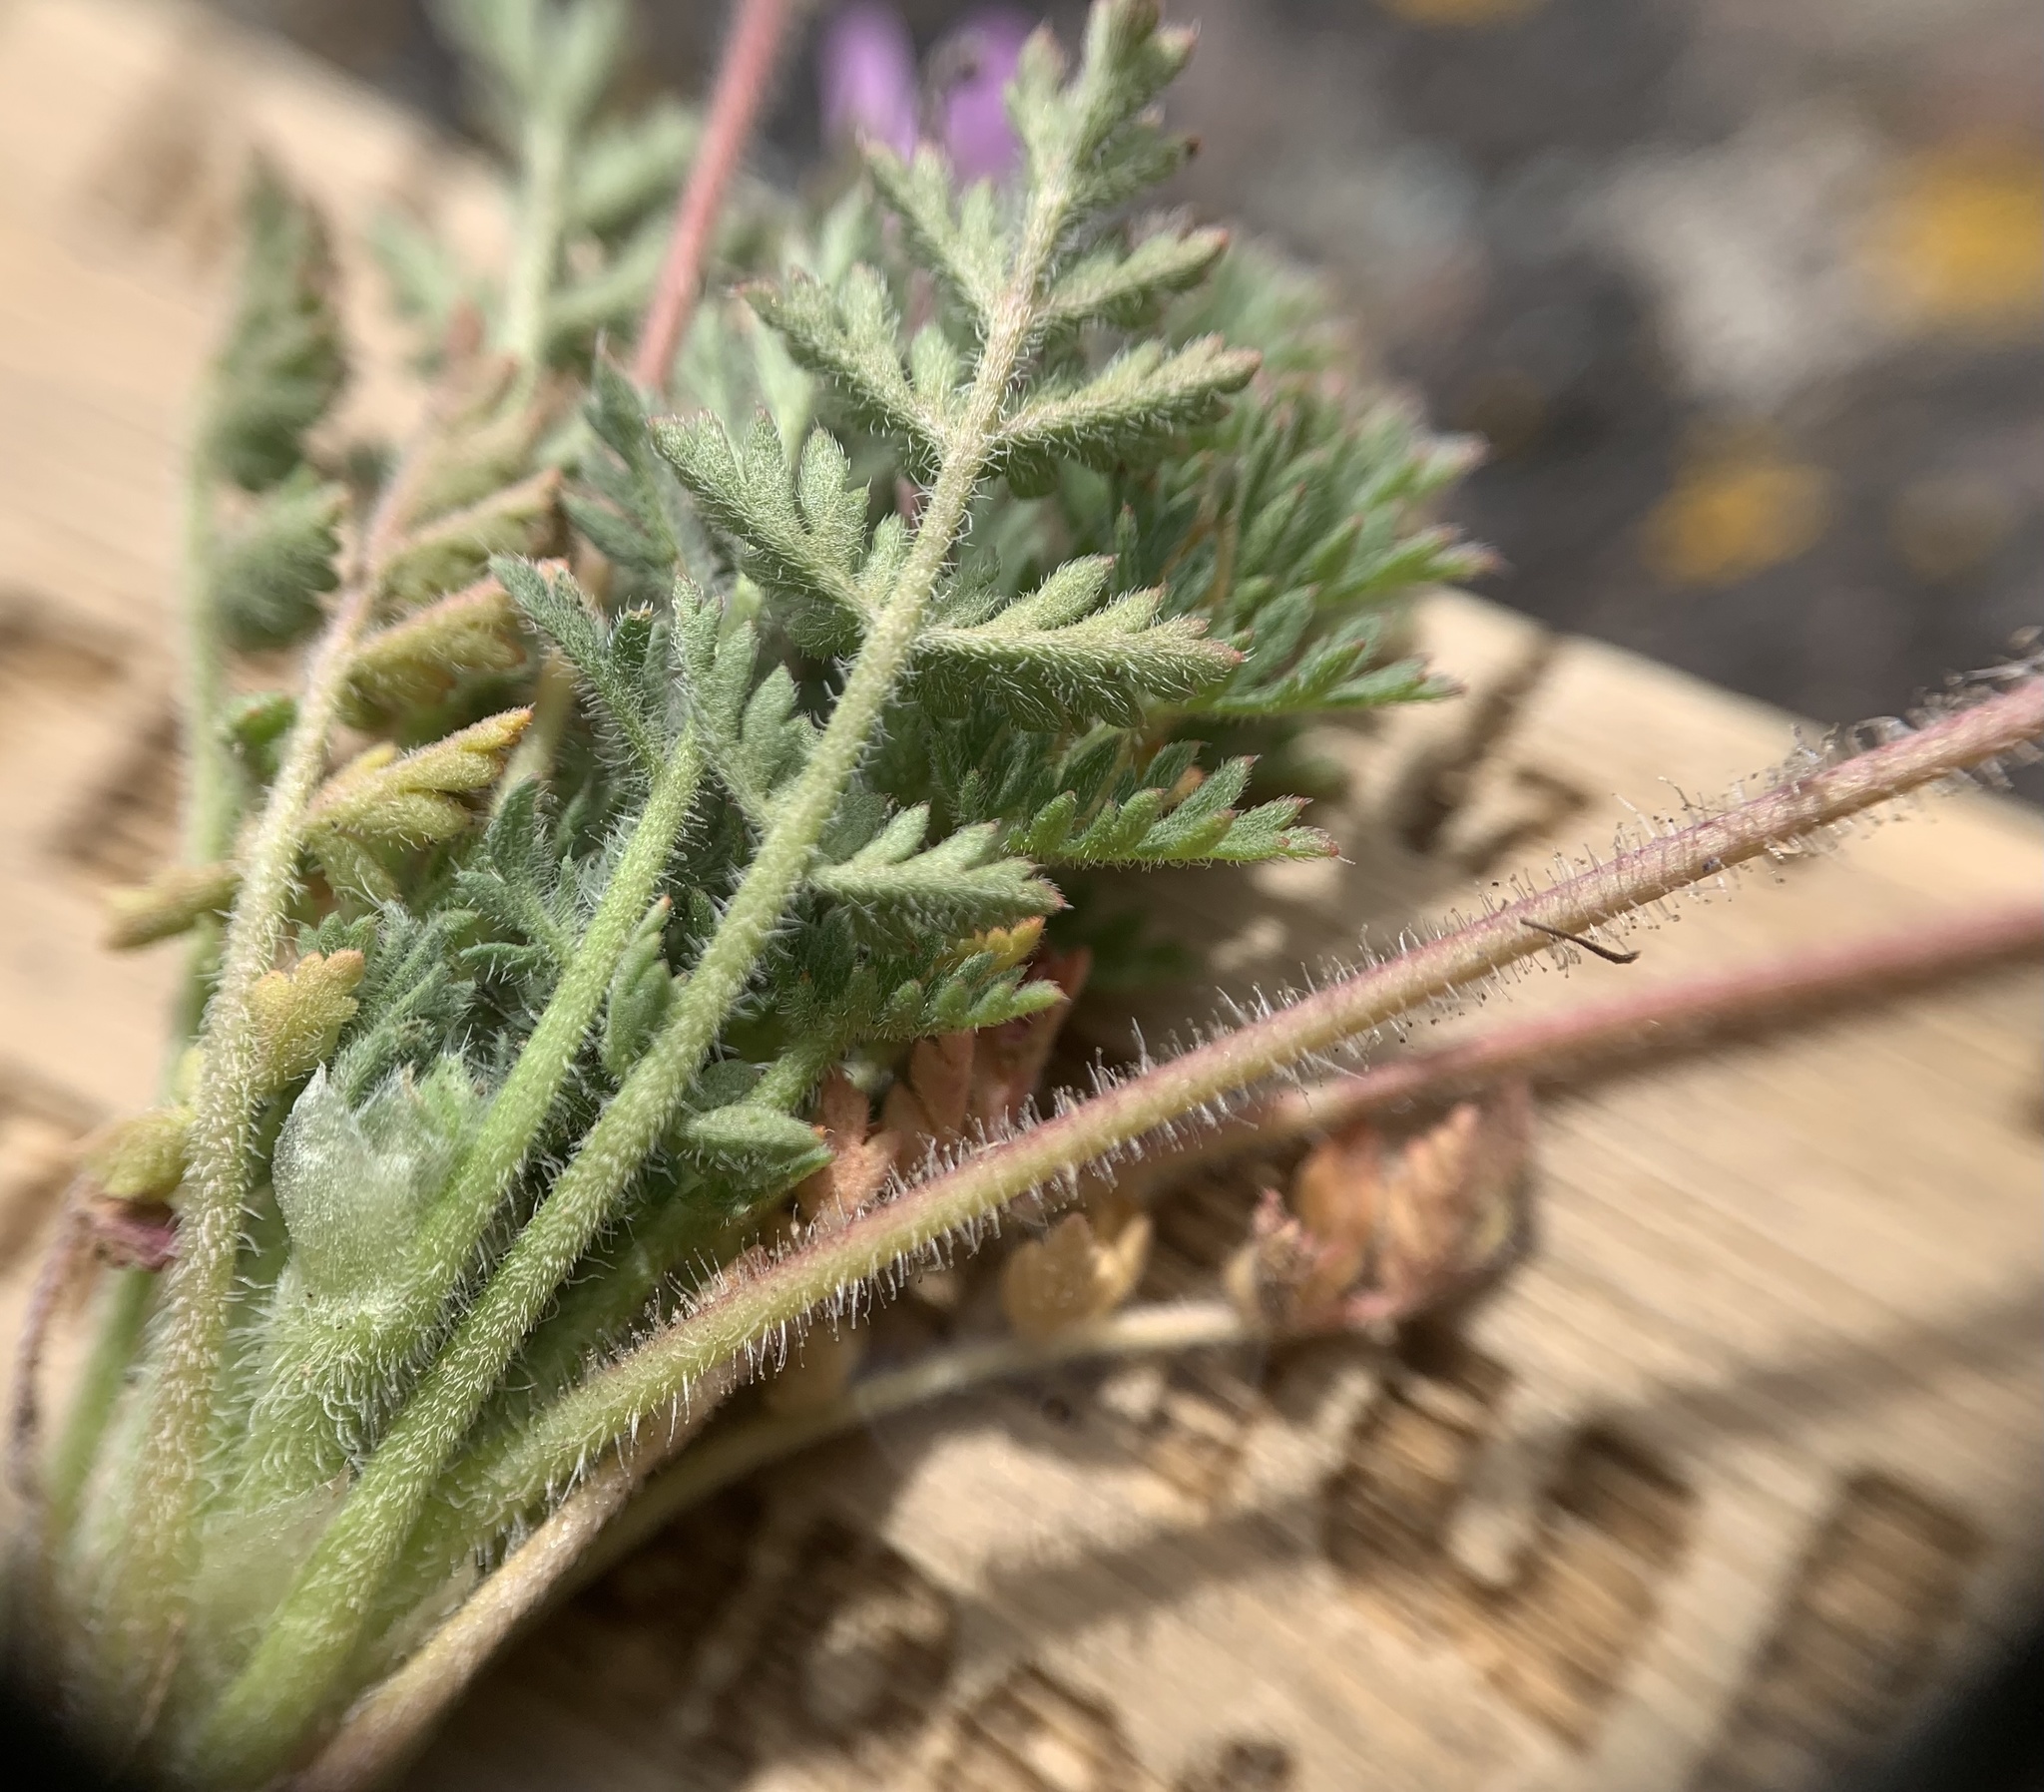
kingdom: Plantae
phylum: Tracheophyta
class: Magnoliopsida
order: Geraniales
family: Geraniaceae
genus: Erodium
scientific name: Erodium cicutarium
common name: Common stork's-bill
